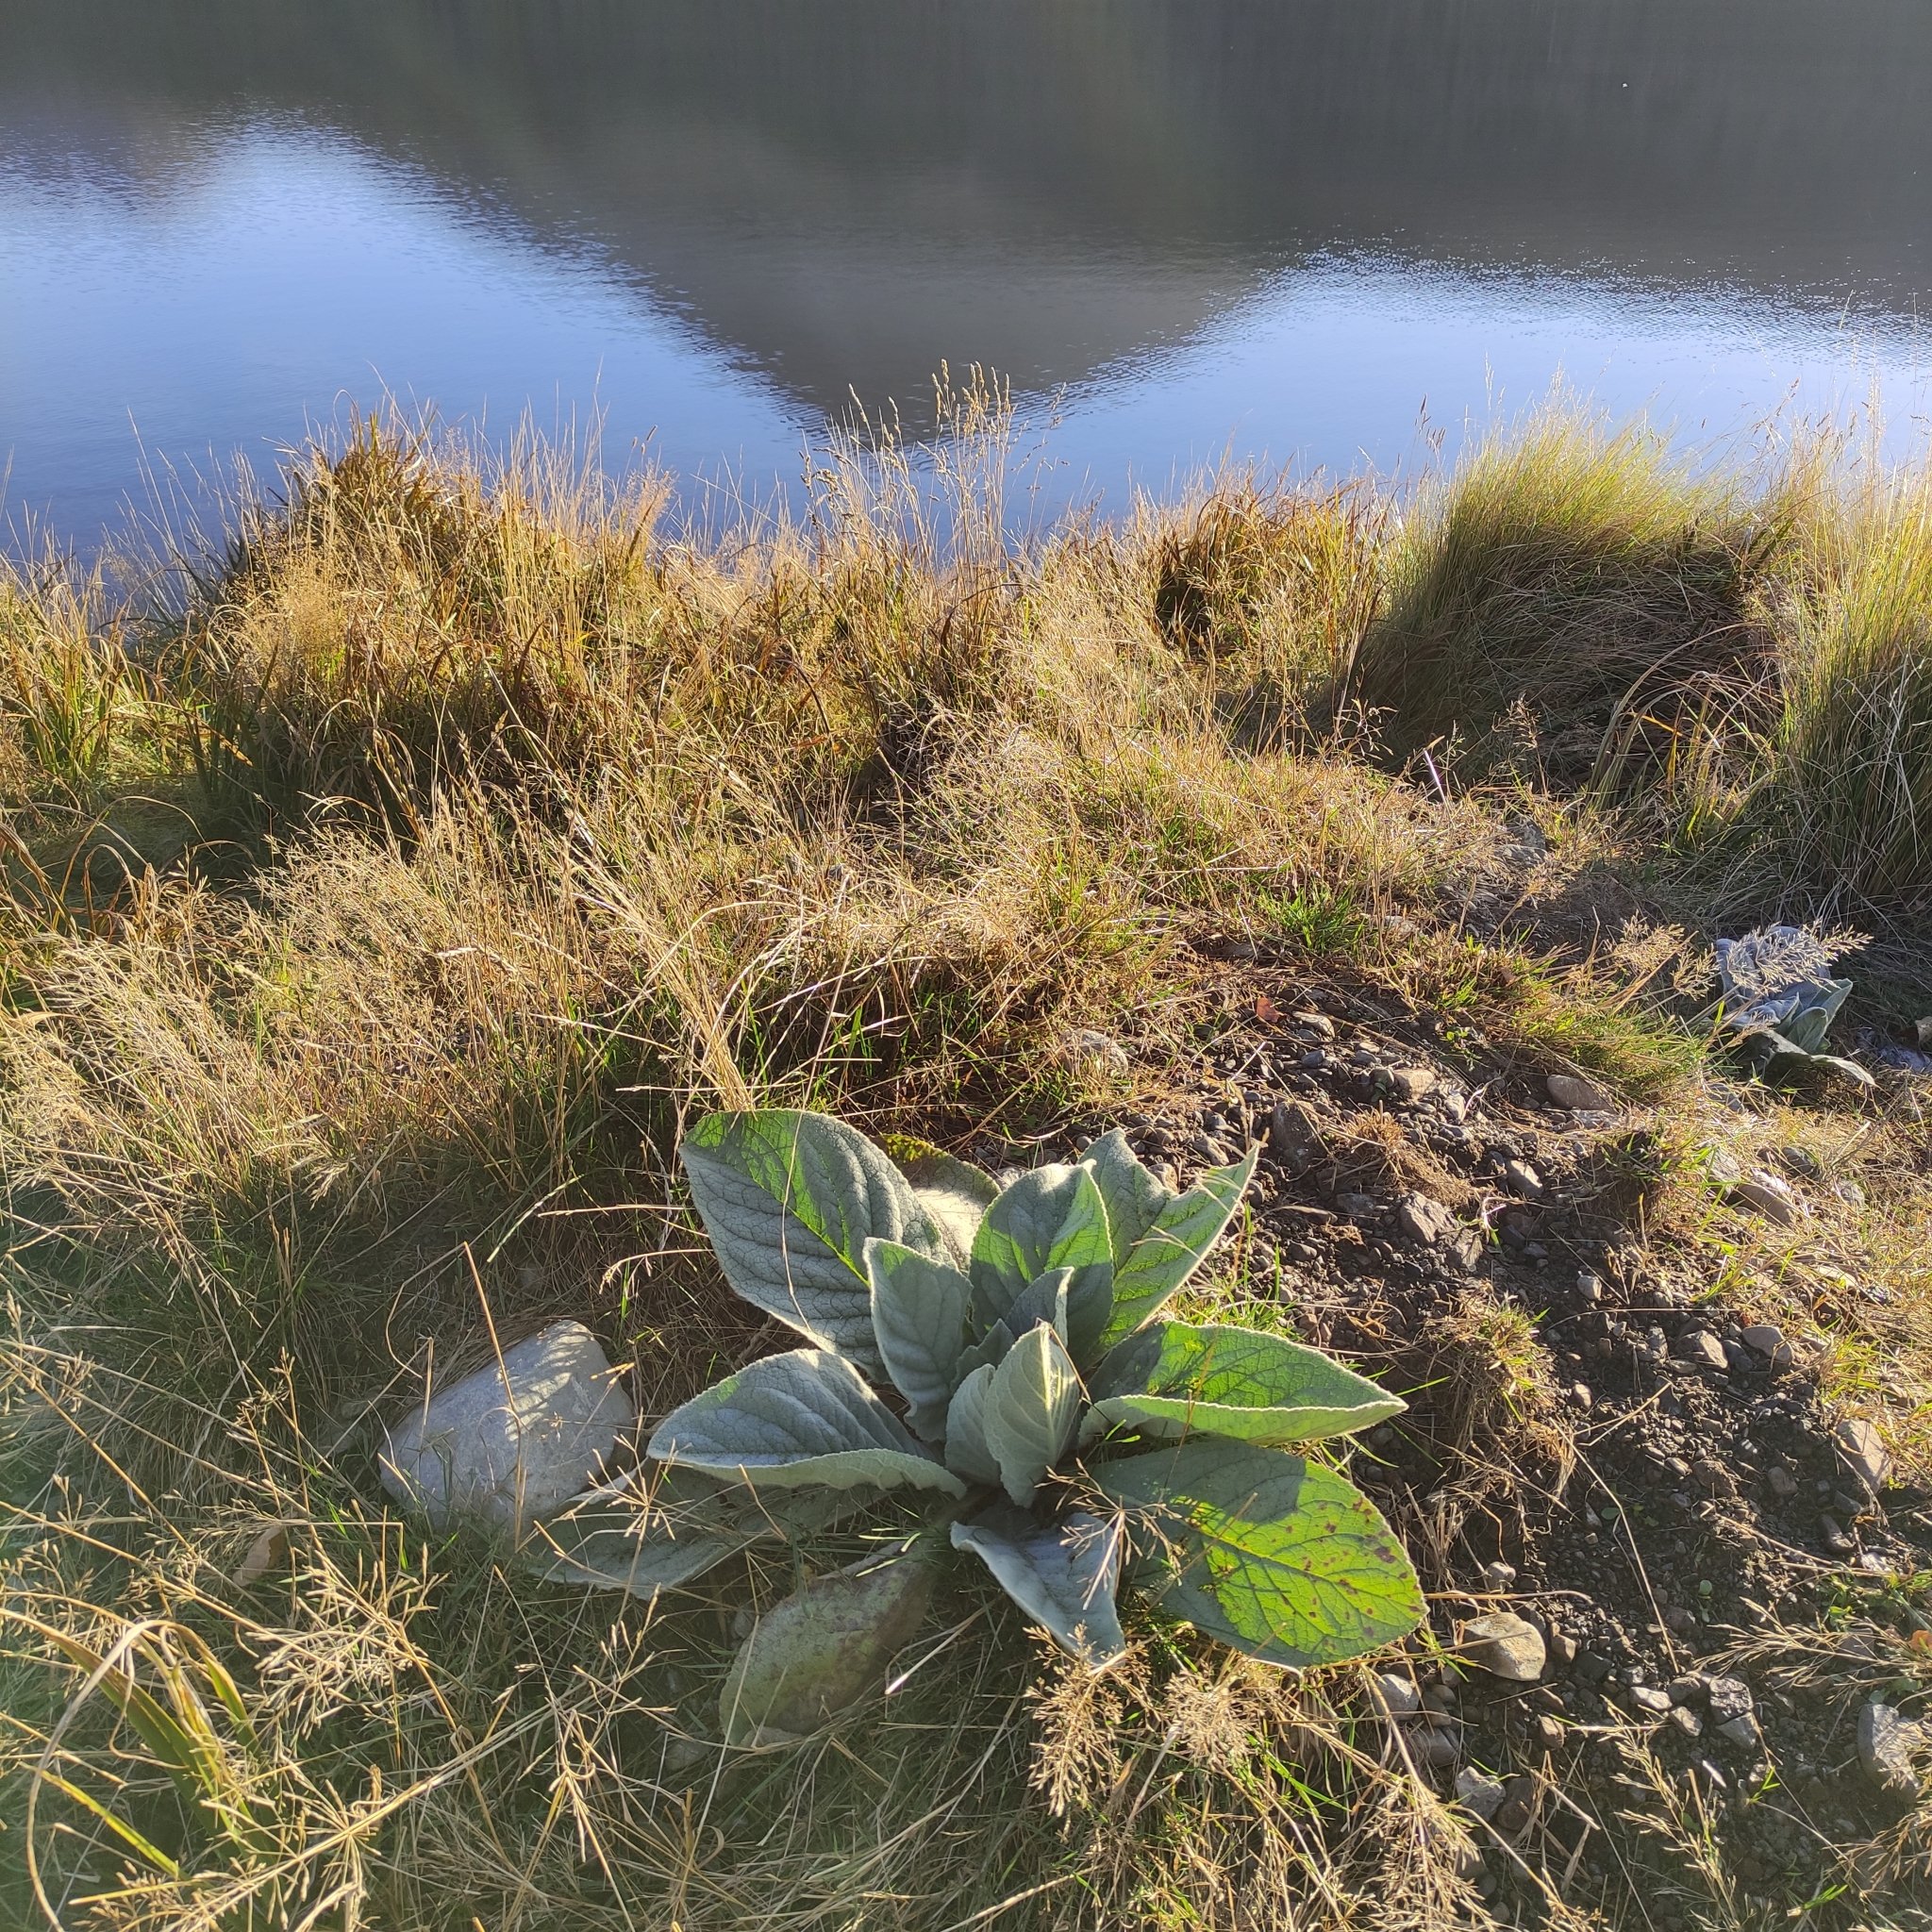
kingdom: Plantae
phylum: Tracheophyta
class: Magnoliopsida
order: Lamiales
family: Scrophulariaceae
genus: Verbascum
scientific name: Verbascum thapsus
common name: Common mullein
